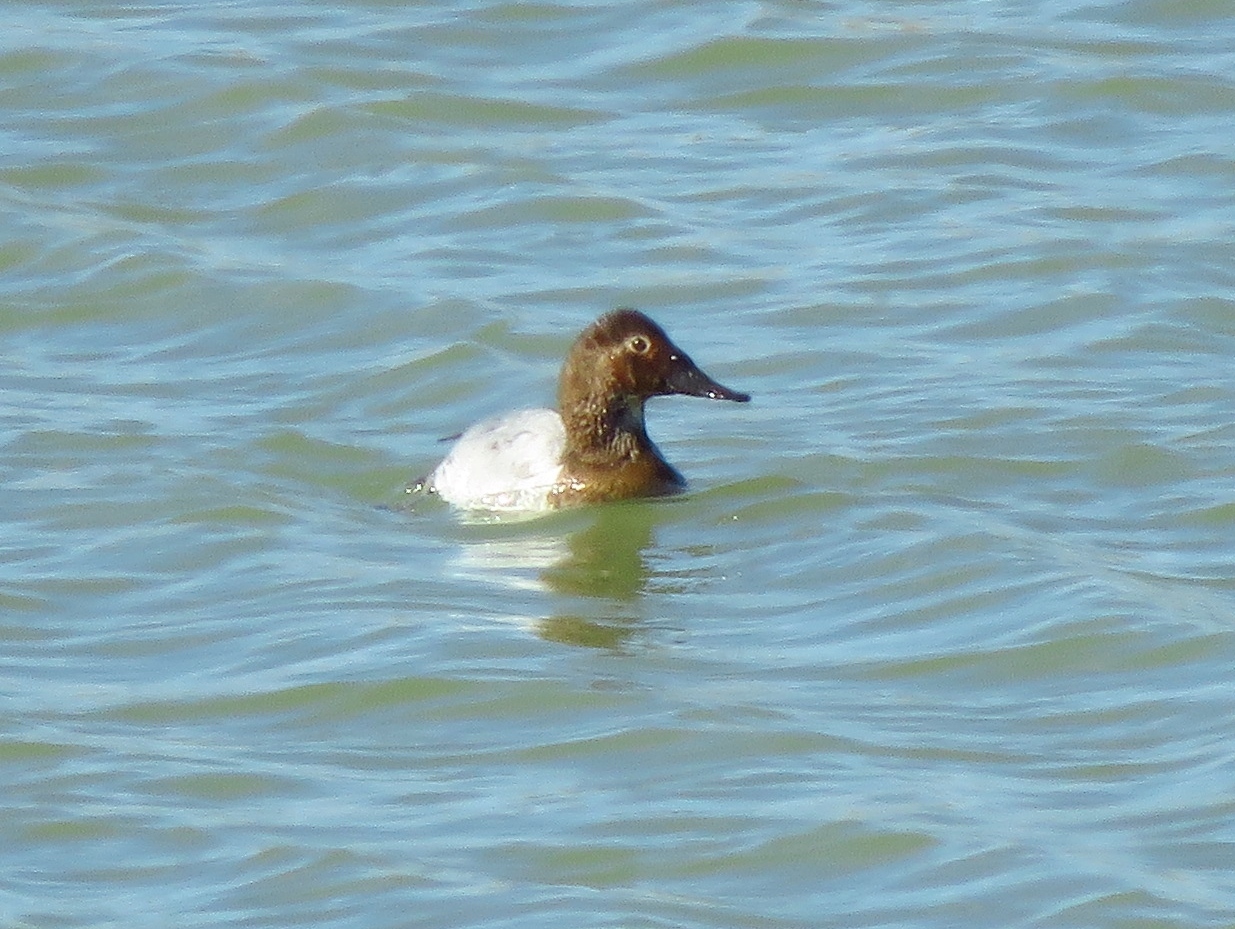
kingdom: Animalia
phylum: Chordata
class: Aves
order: Anseriformes
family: Anatidae
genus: Aythya
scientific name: Aythya valisineria
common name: Canvasback
